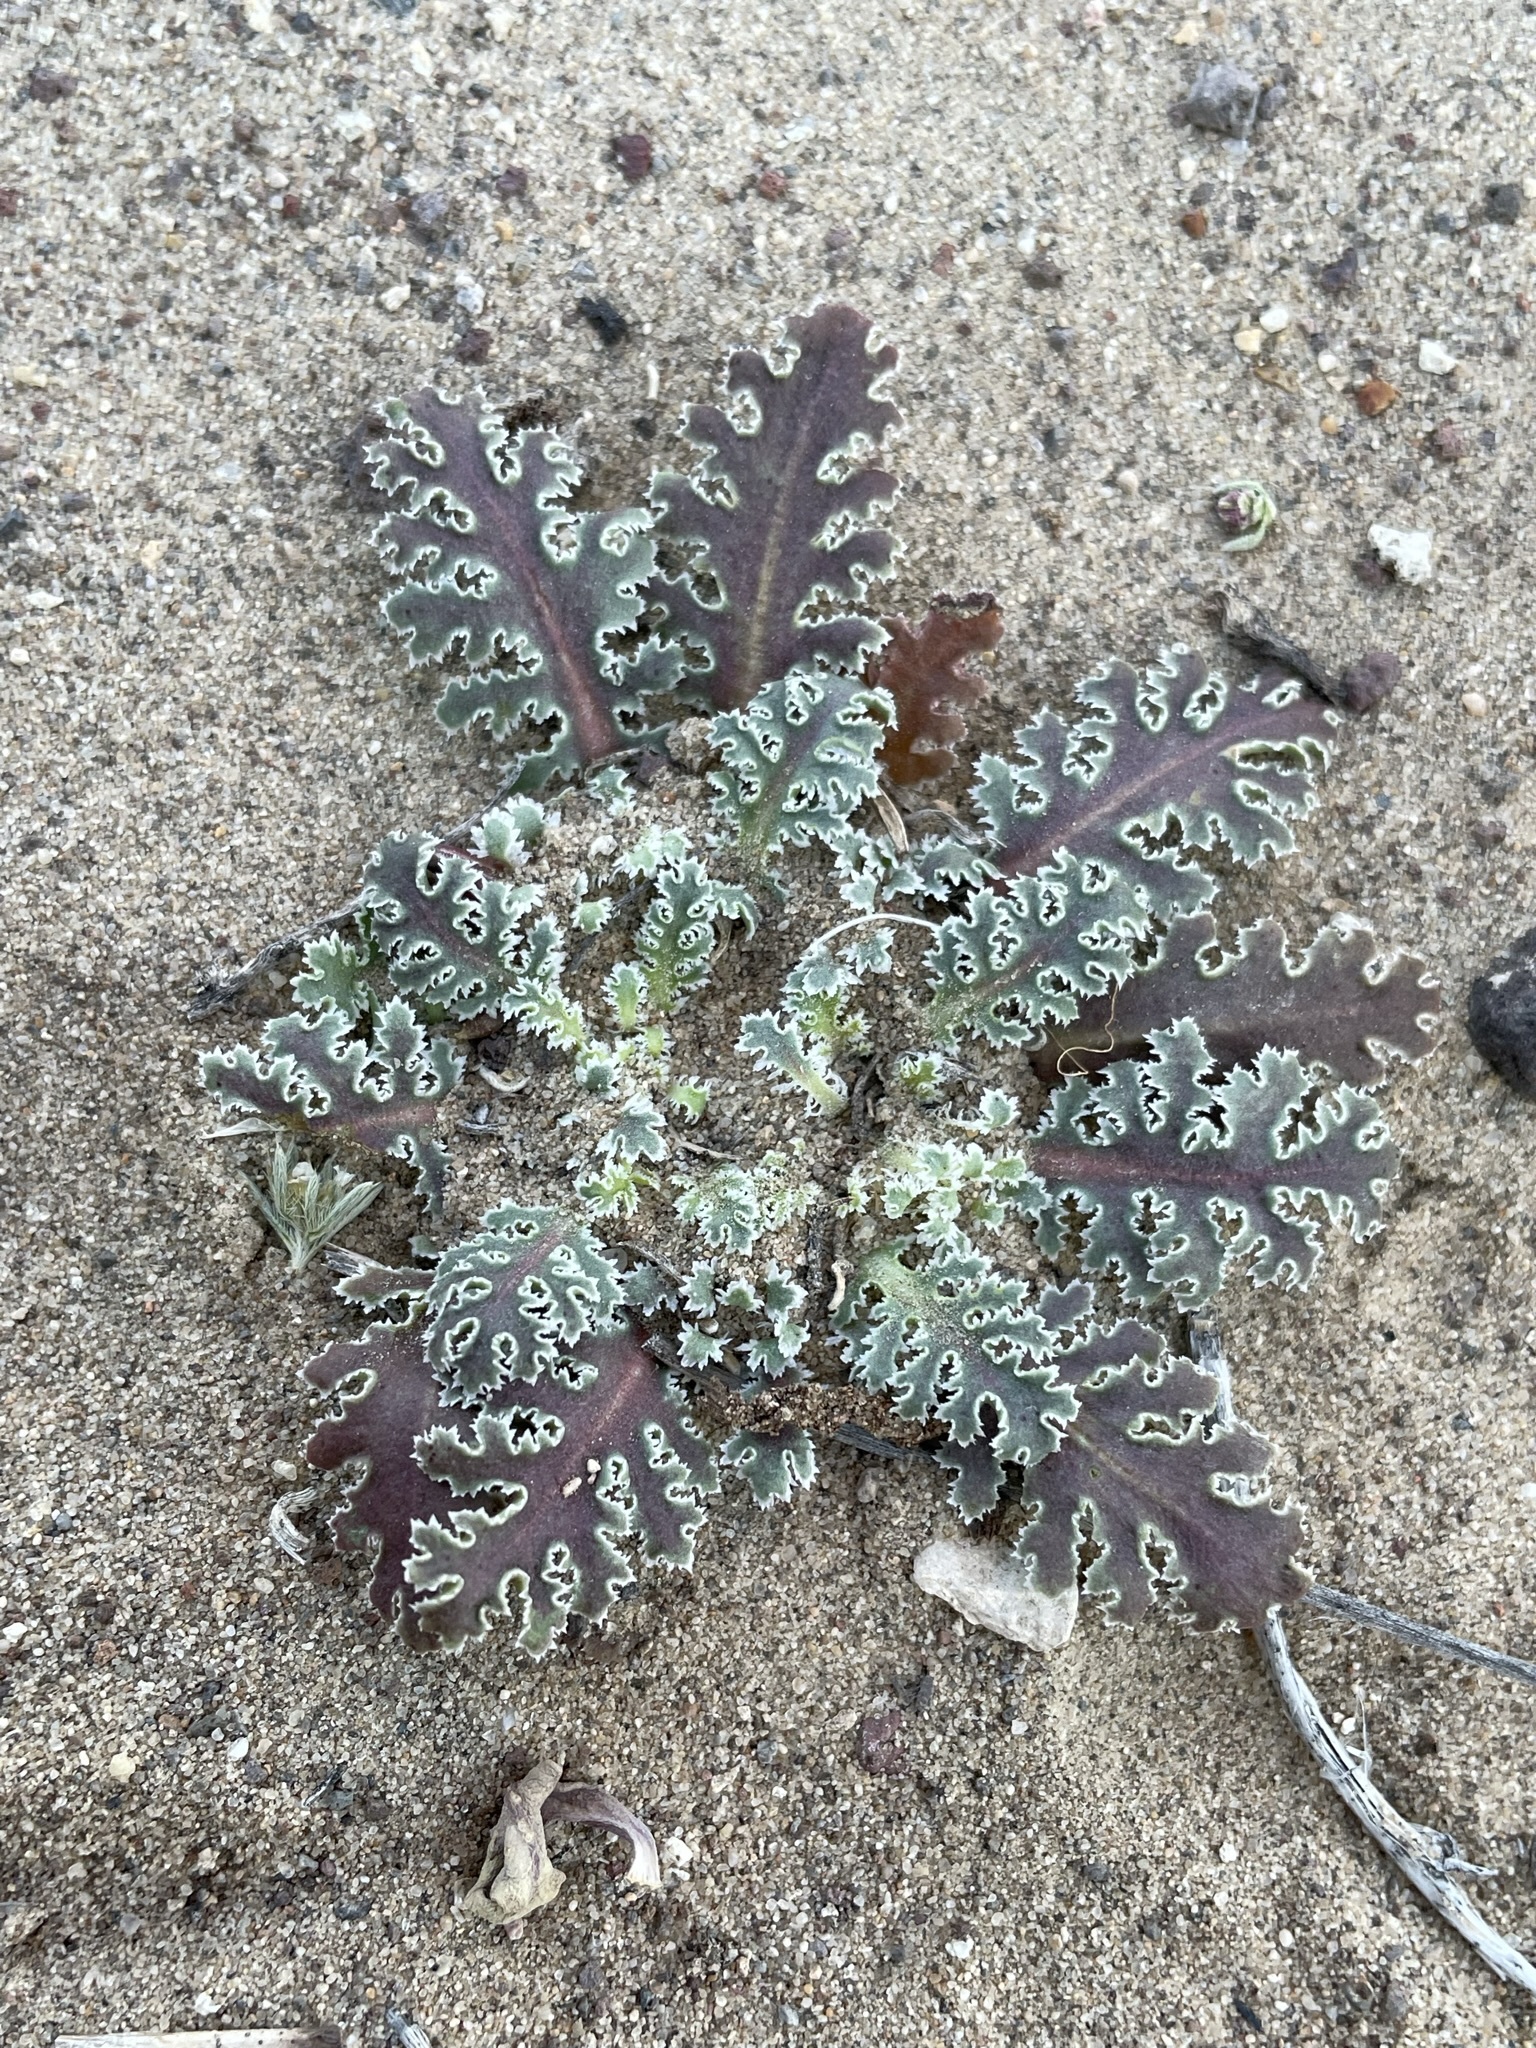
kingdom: Plantae
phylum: Tracheophyta
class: Magnoliopsida
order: Asterales
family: Asteraceae
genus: Glyptopleura
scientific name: Glyptopleura marginata
